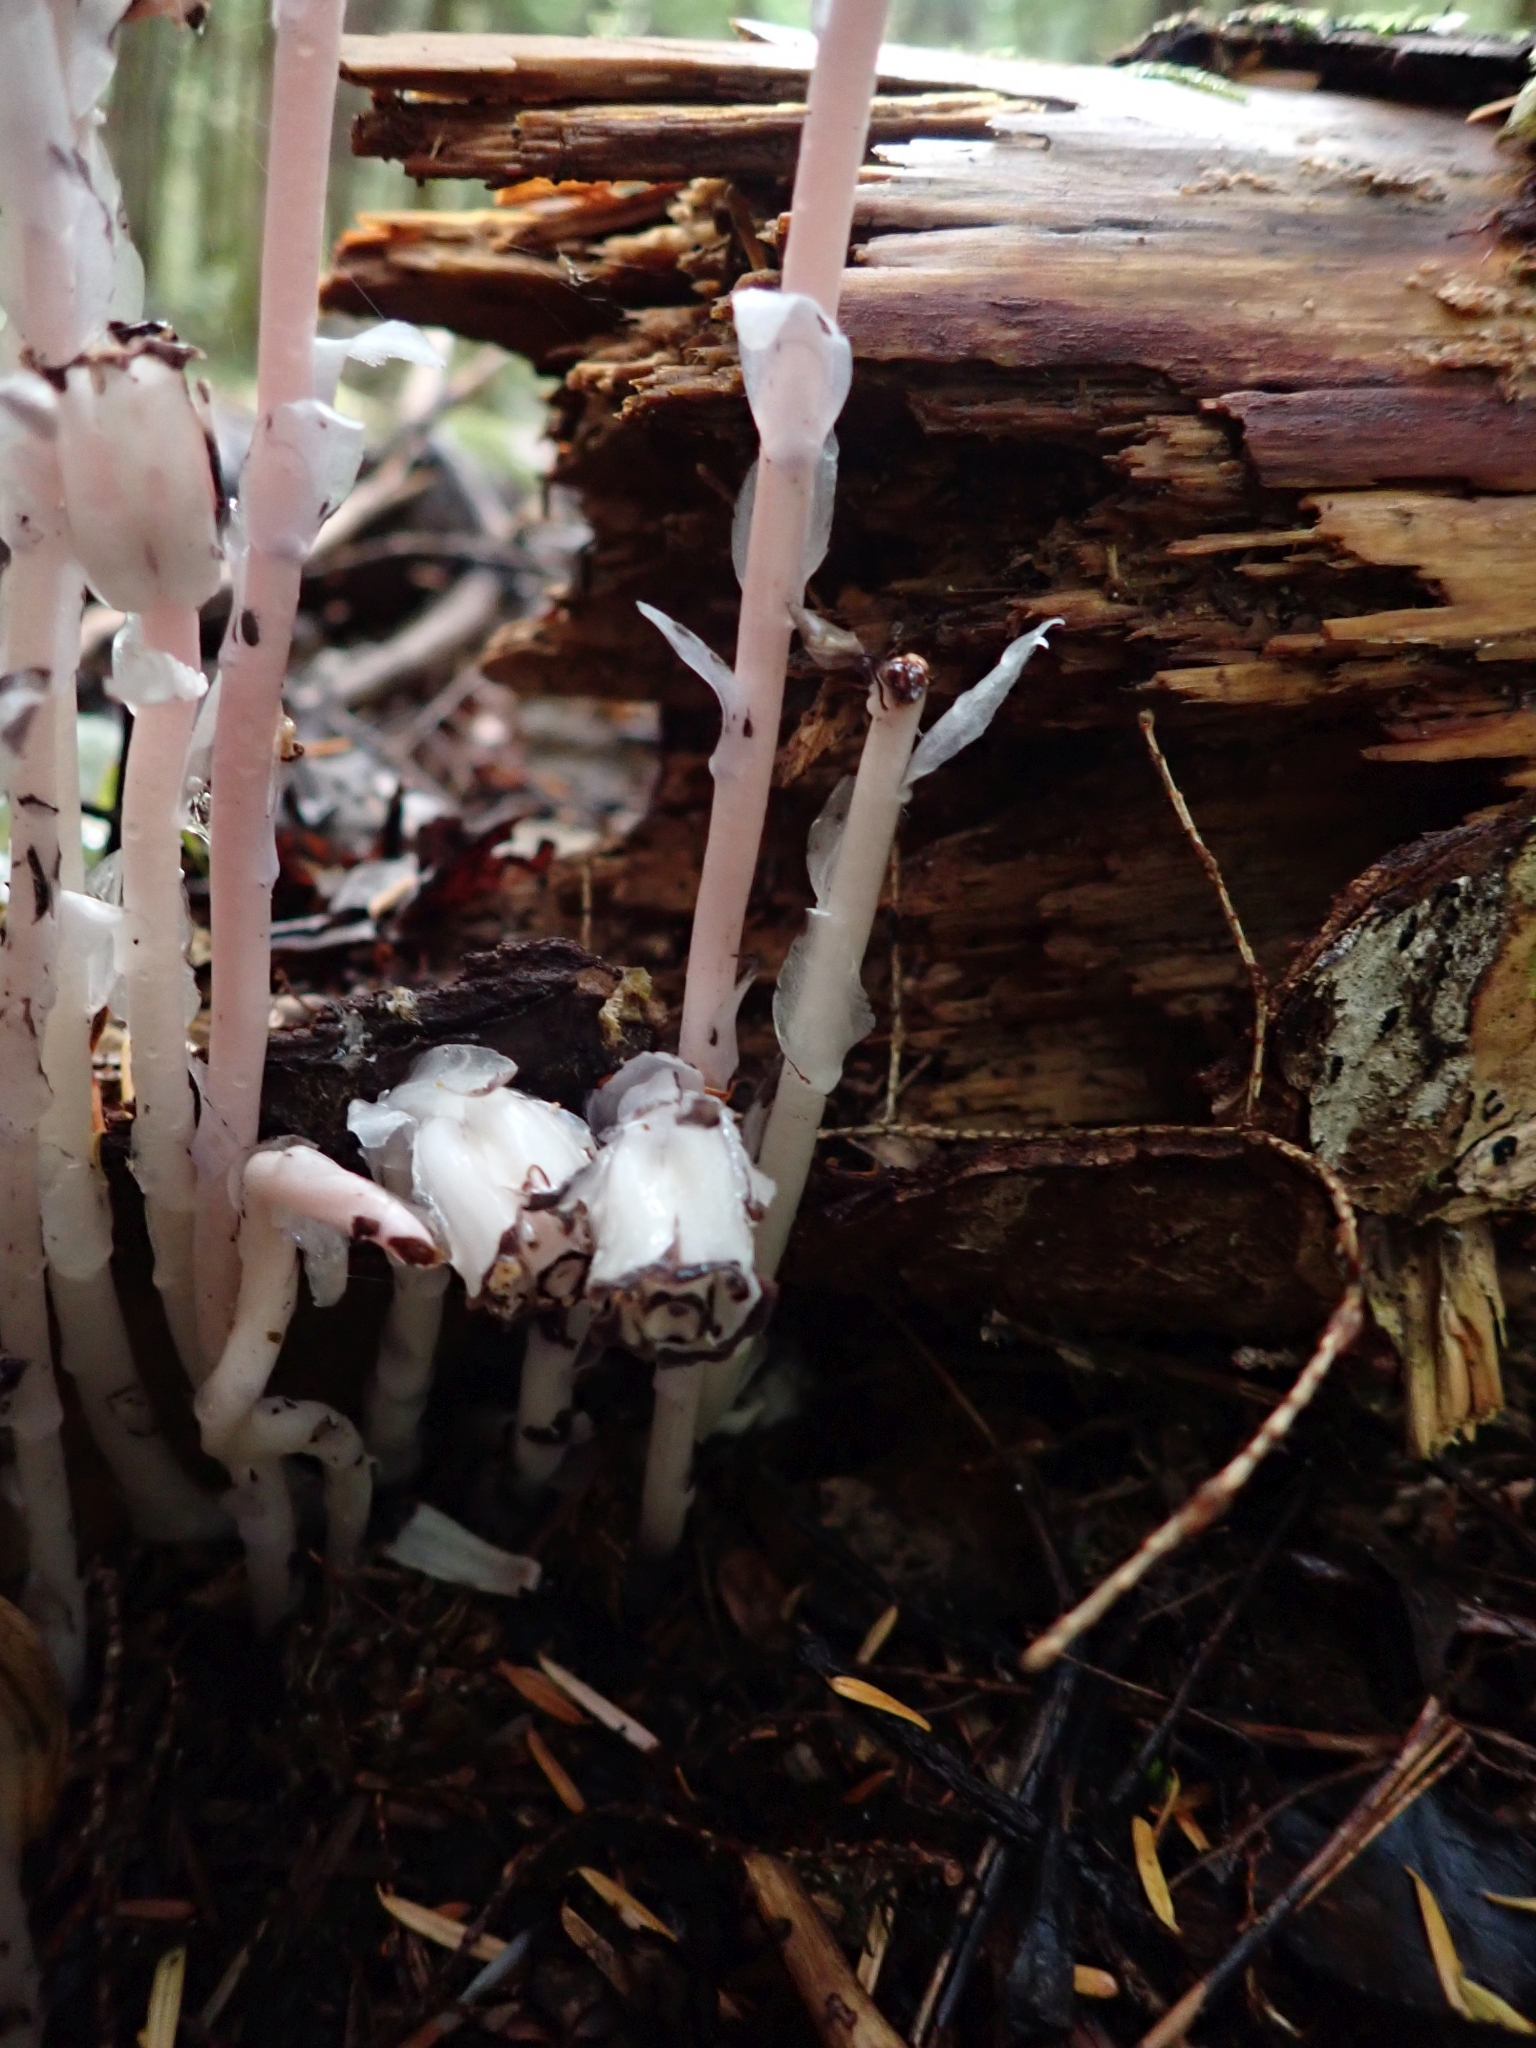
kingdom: Plantae
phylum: Tracheophyta
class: Magnoliopsida
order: Ericales
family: Ericaceae
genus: Monotropa
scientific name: Monotropa uniflora
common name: Convulsion root
